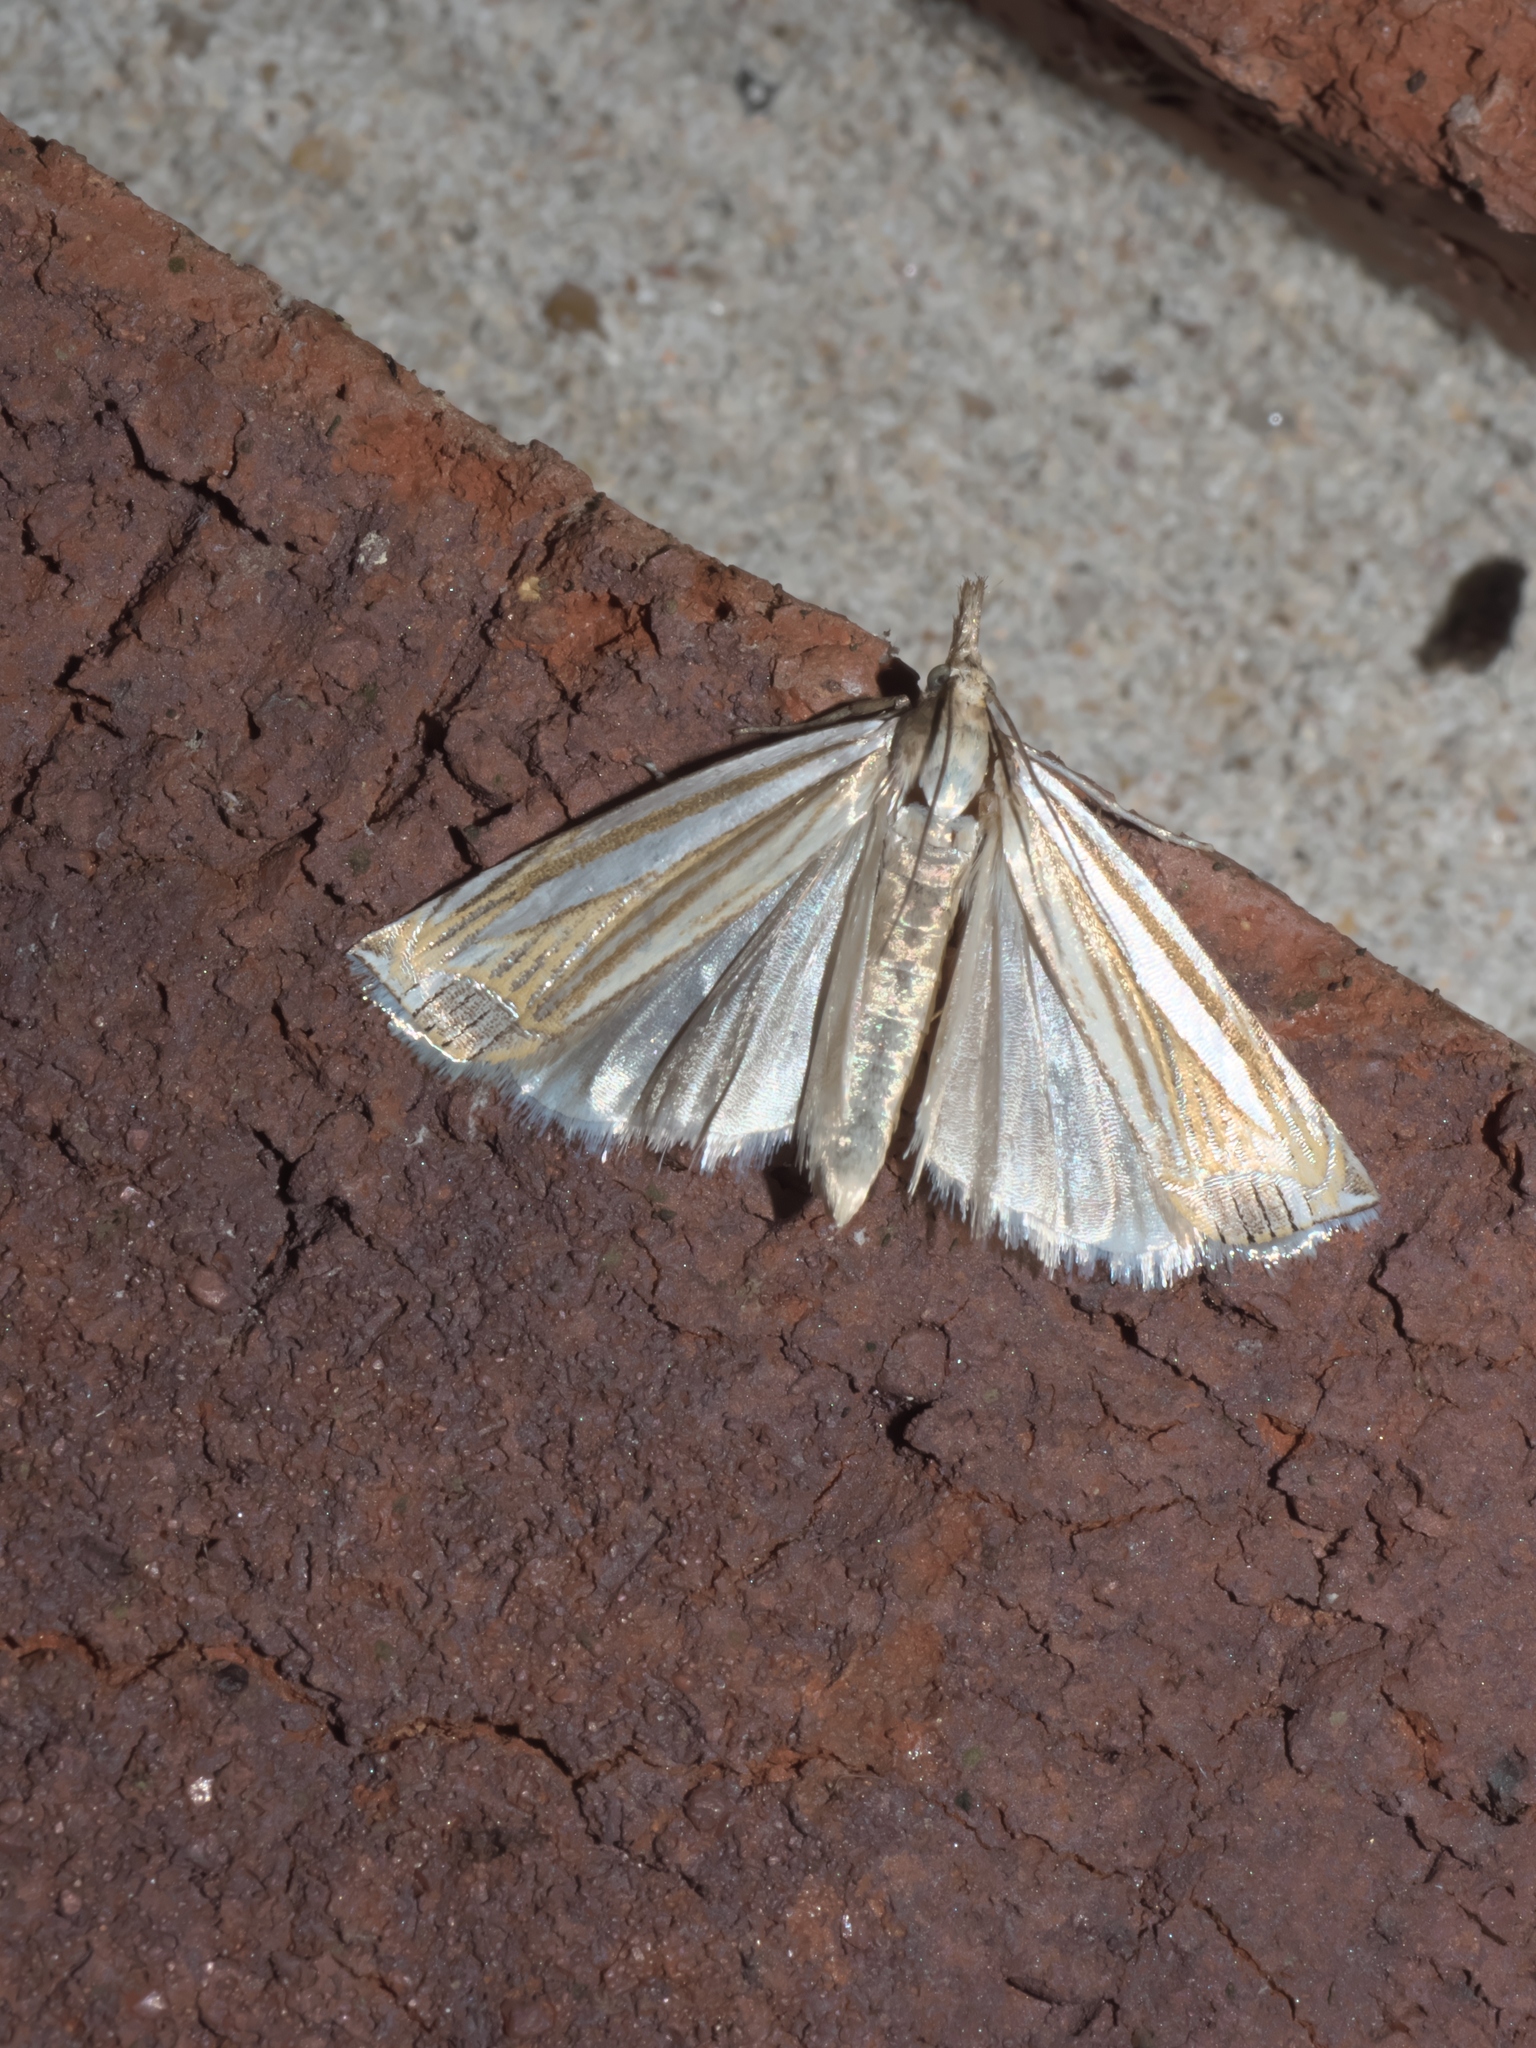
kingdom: Animalia
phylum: Arthropoda
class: Insecta
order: Lepidoptera
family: Crambidae
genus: Crambus
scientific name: Crambus laqueatellus
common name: Eastern grass-veneer
